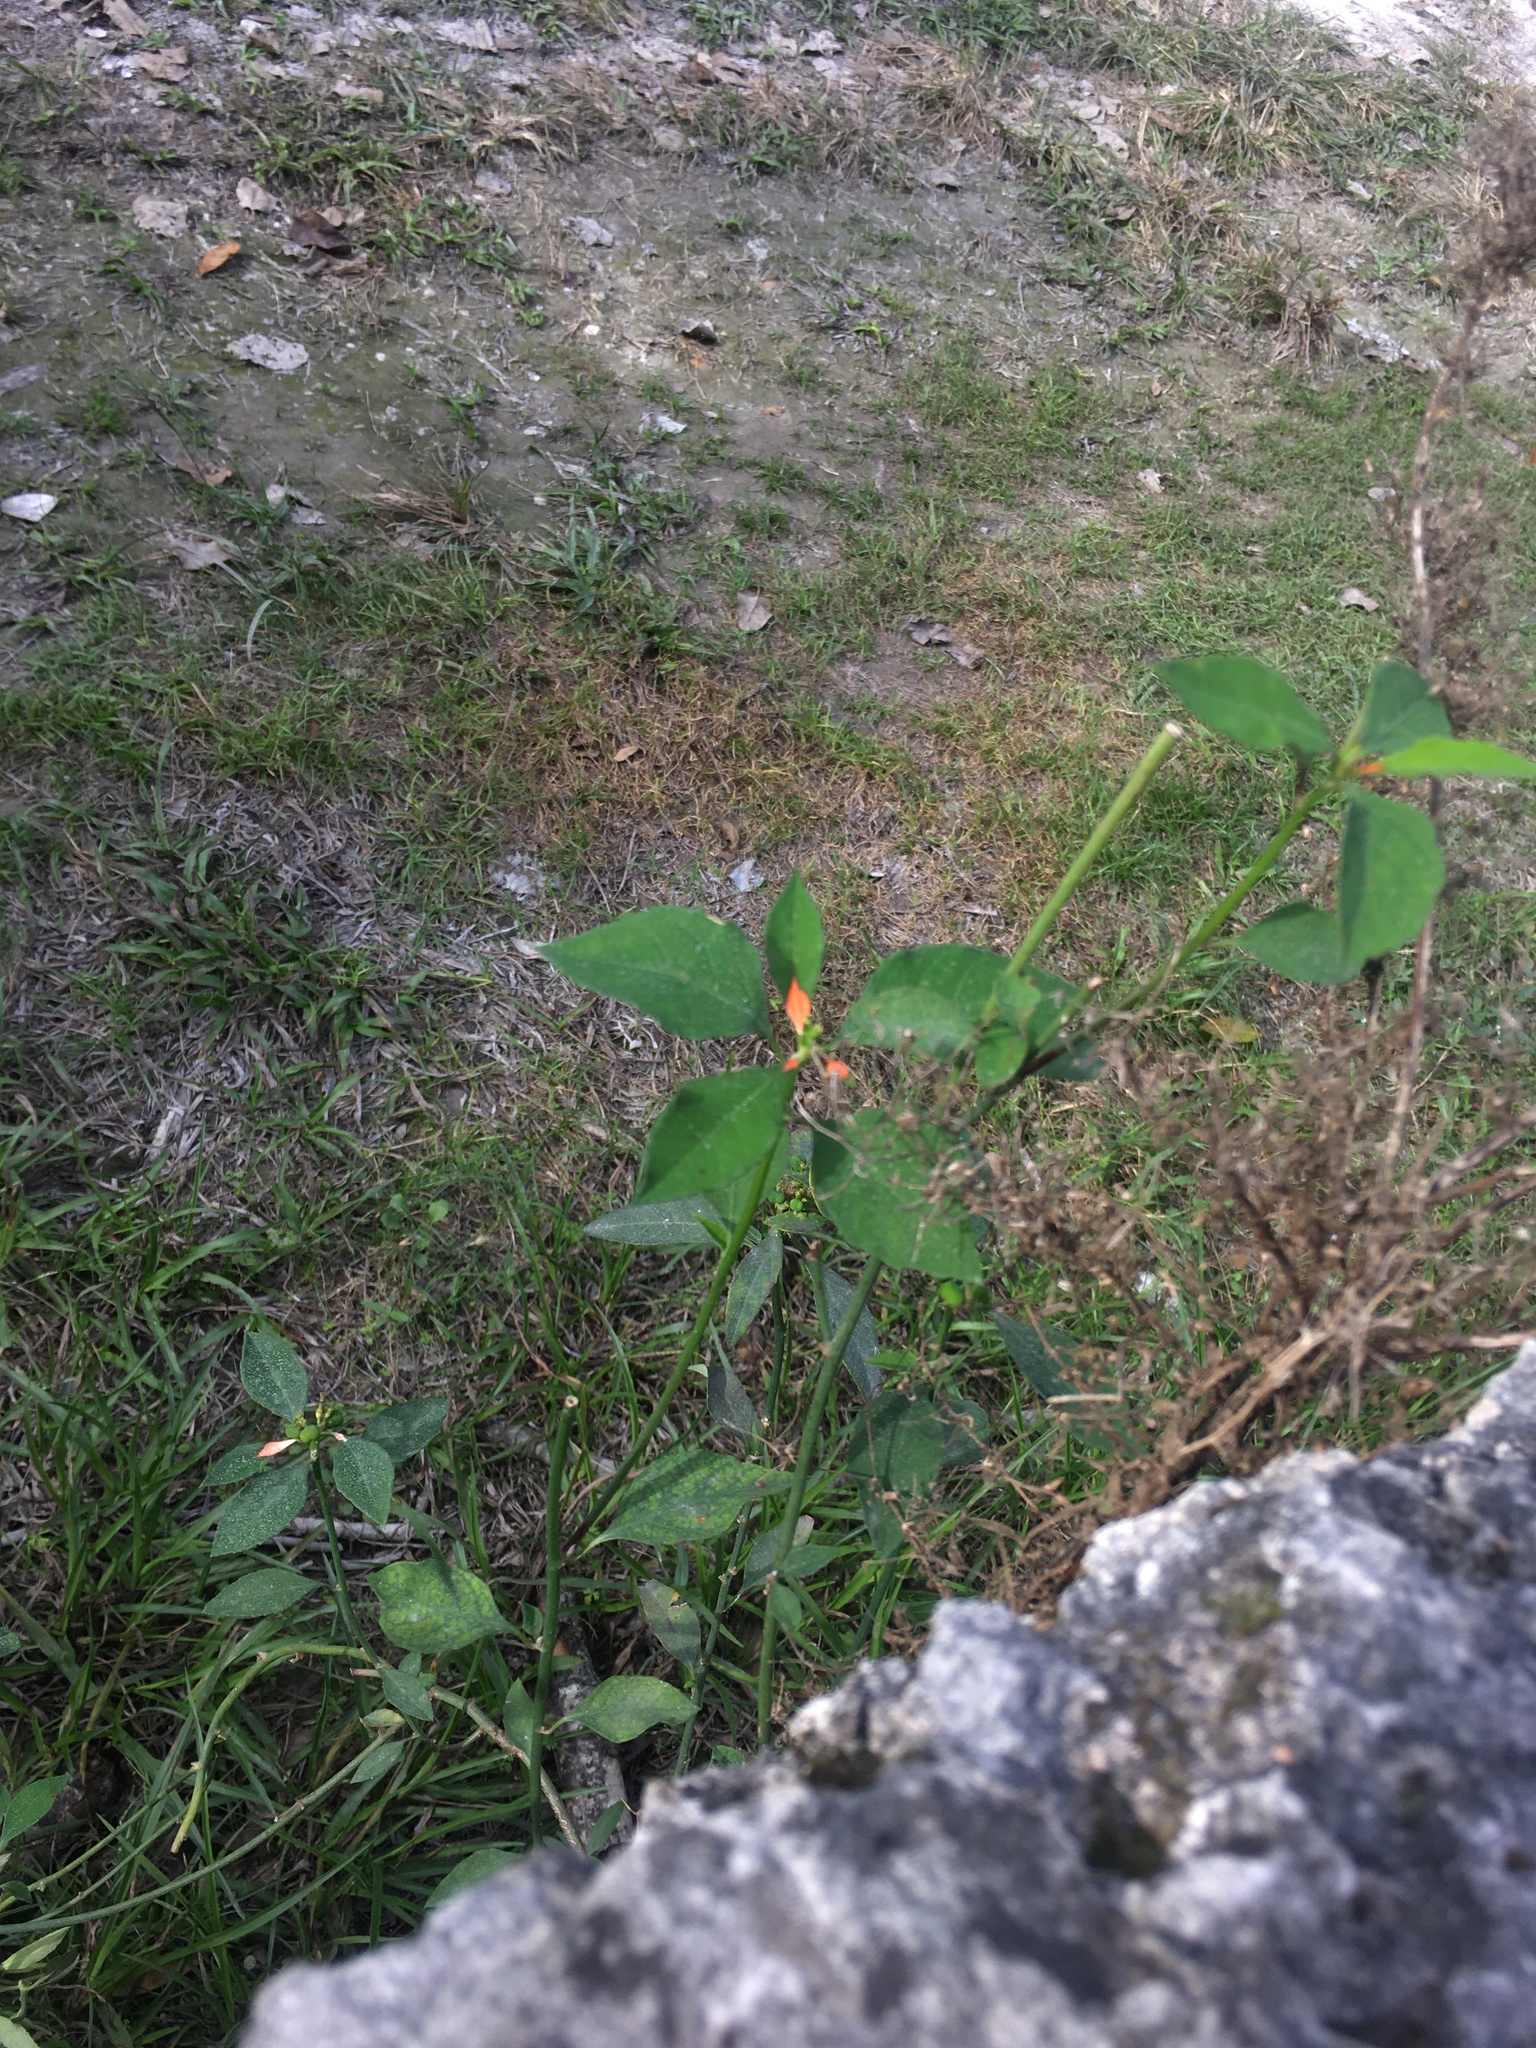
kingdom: Plantae
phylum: Tracheophyta
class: Magnoliopsida
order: Malpighiales
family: Euphorbiaceae
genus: Euphorbia
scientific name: Euphorbia heterophylla
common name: Mexican fireplant
